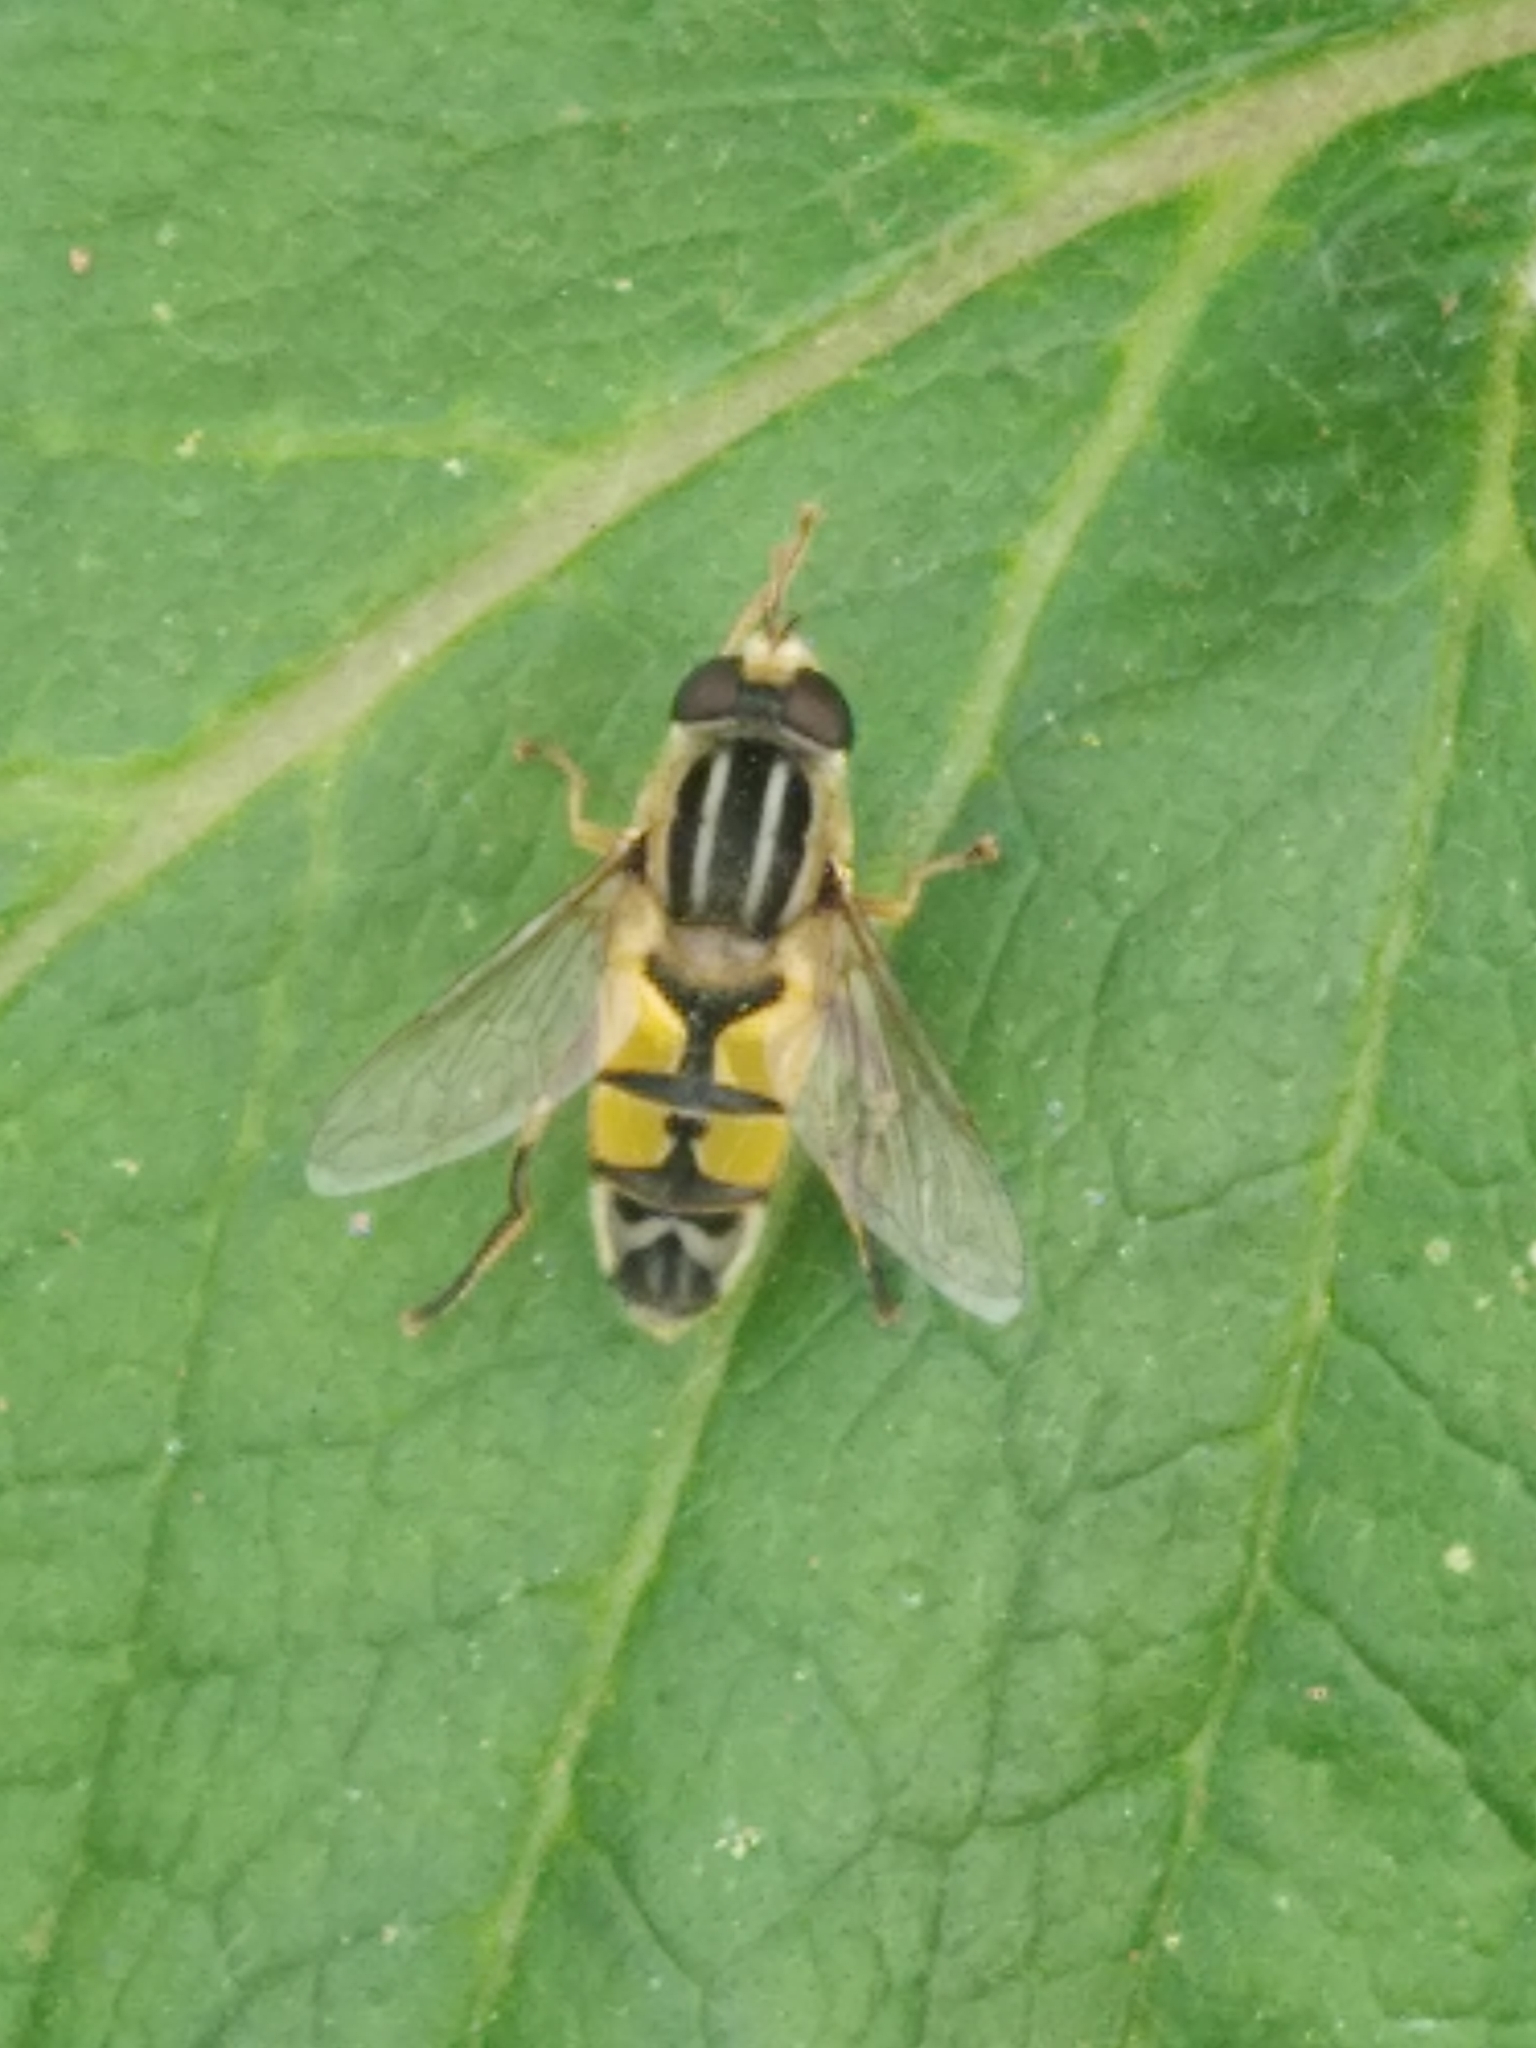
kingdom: Animalia
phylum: Arthropoda
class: Insecta
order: Diptera
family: Syrphidae
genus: Helophilus
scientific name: Helophilus trivittatus
